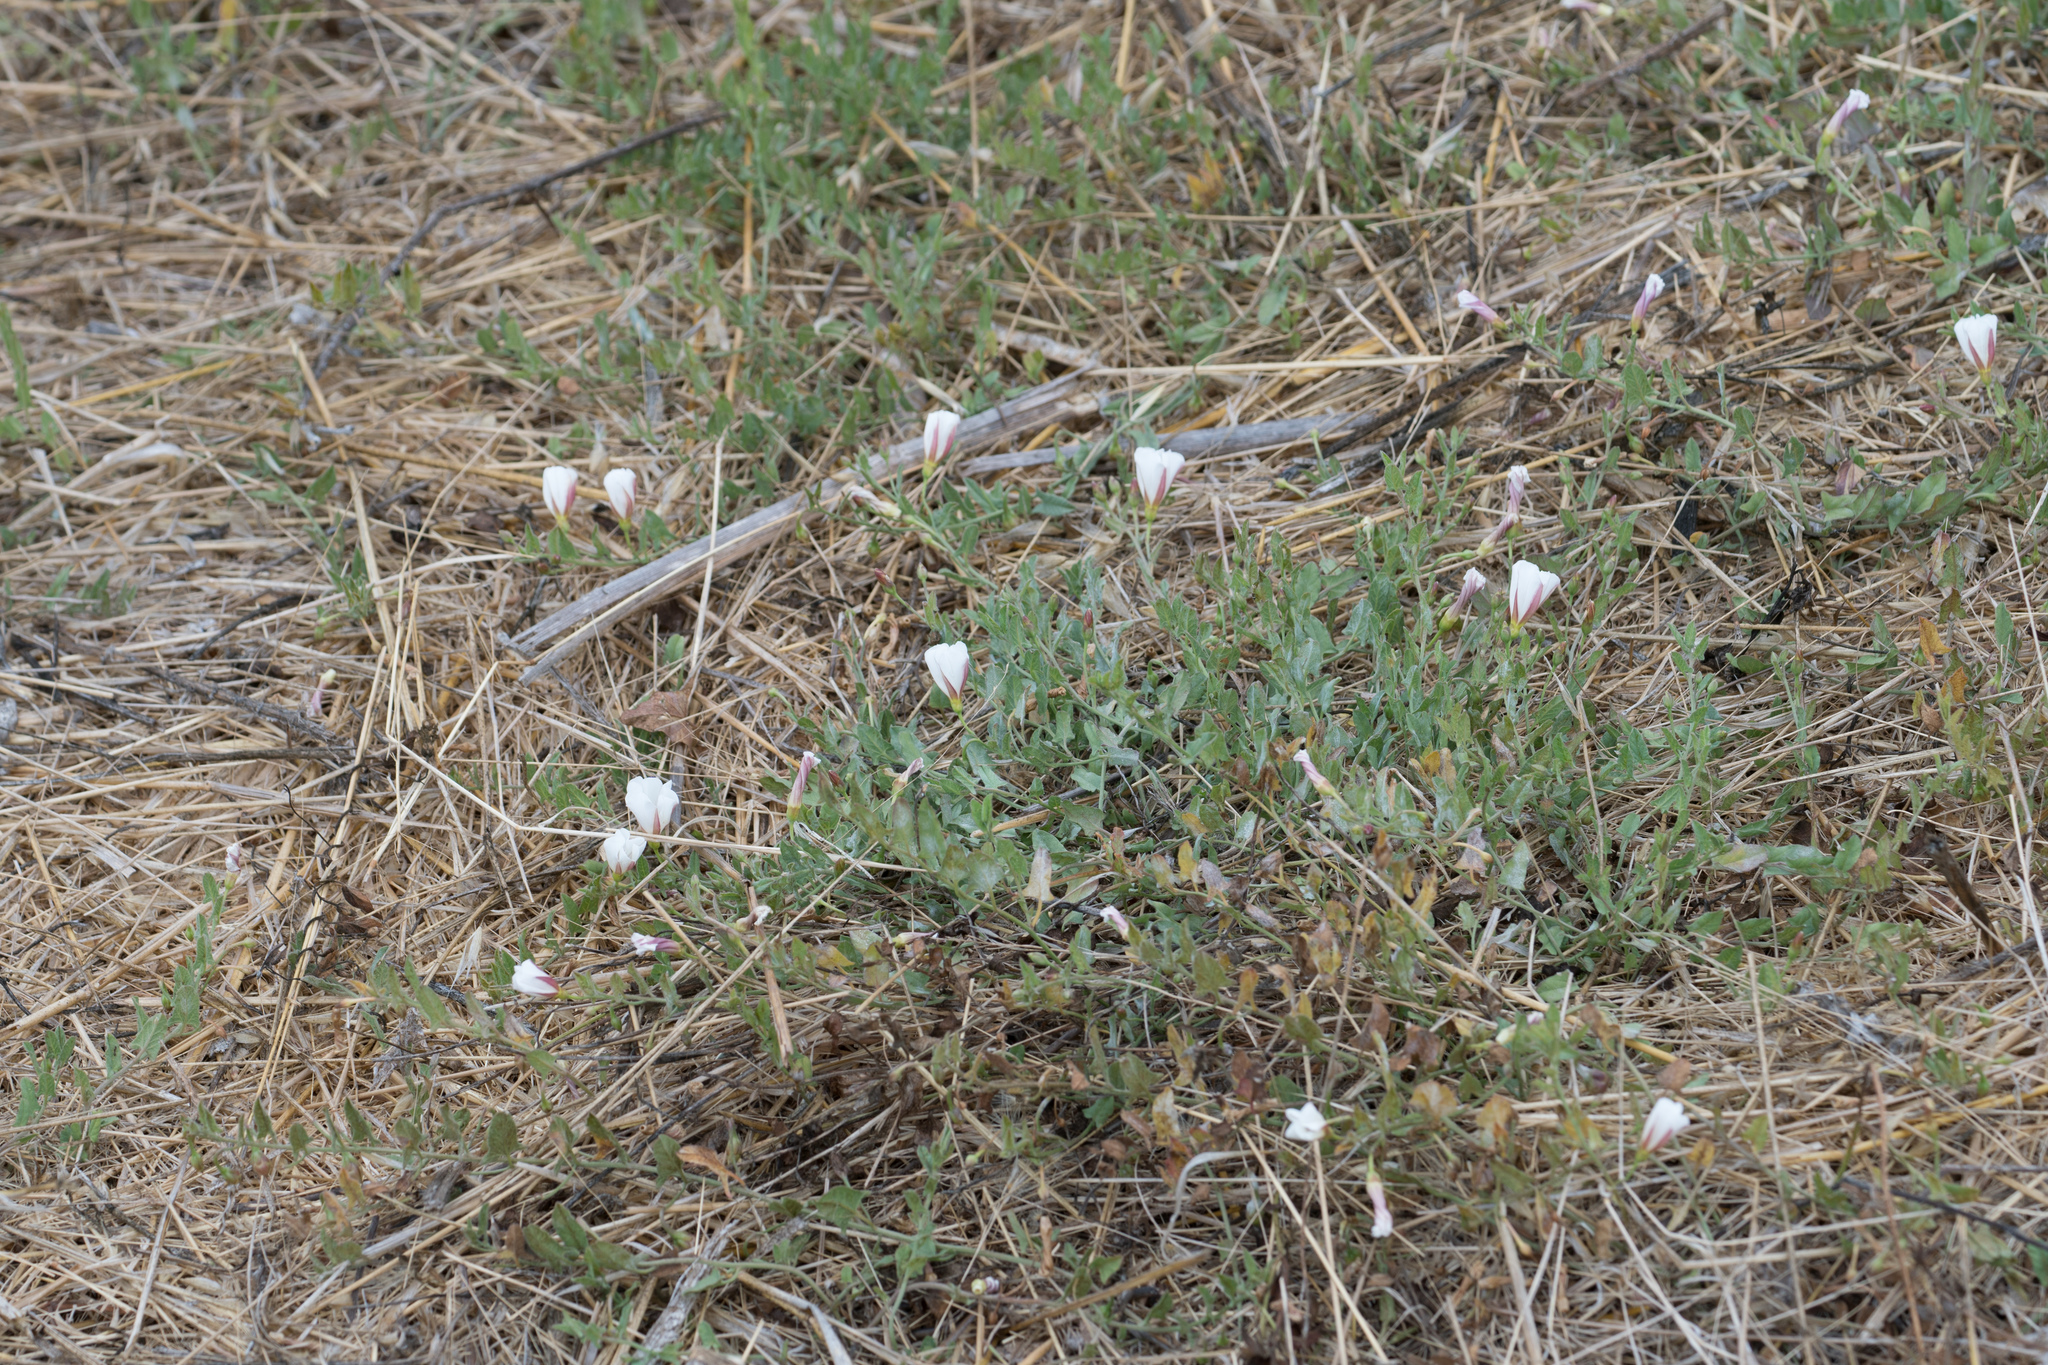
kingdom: Plantae
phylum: Tracheophyta
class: Magnoliopsida
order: Solanales
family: Convolvulaceae
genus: Convolvulus
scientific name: Convolvulus arvensis
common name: Field bindweed
